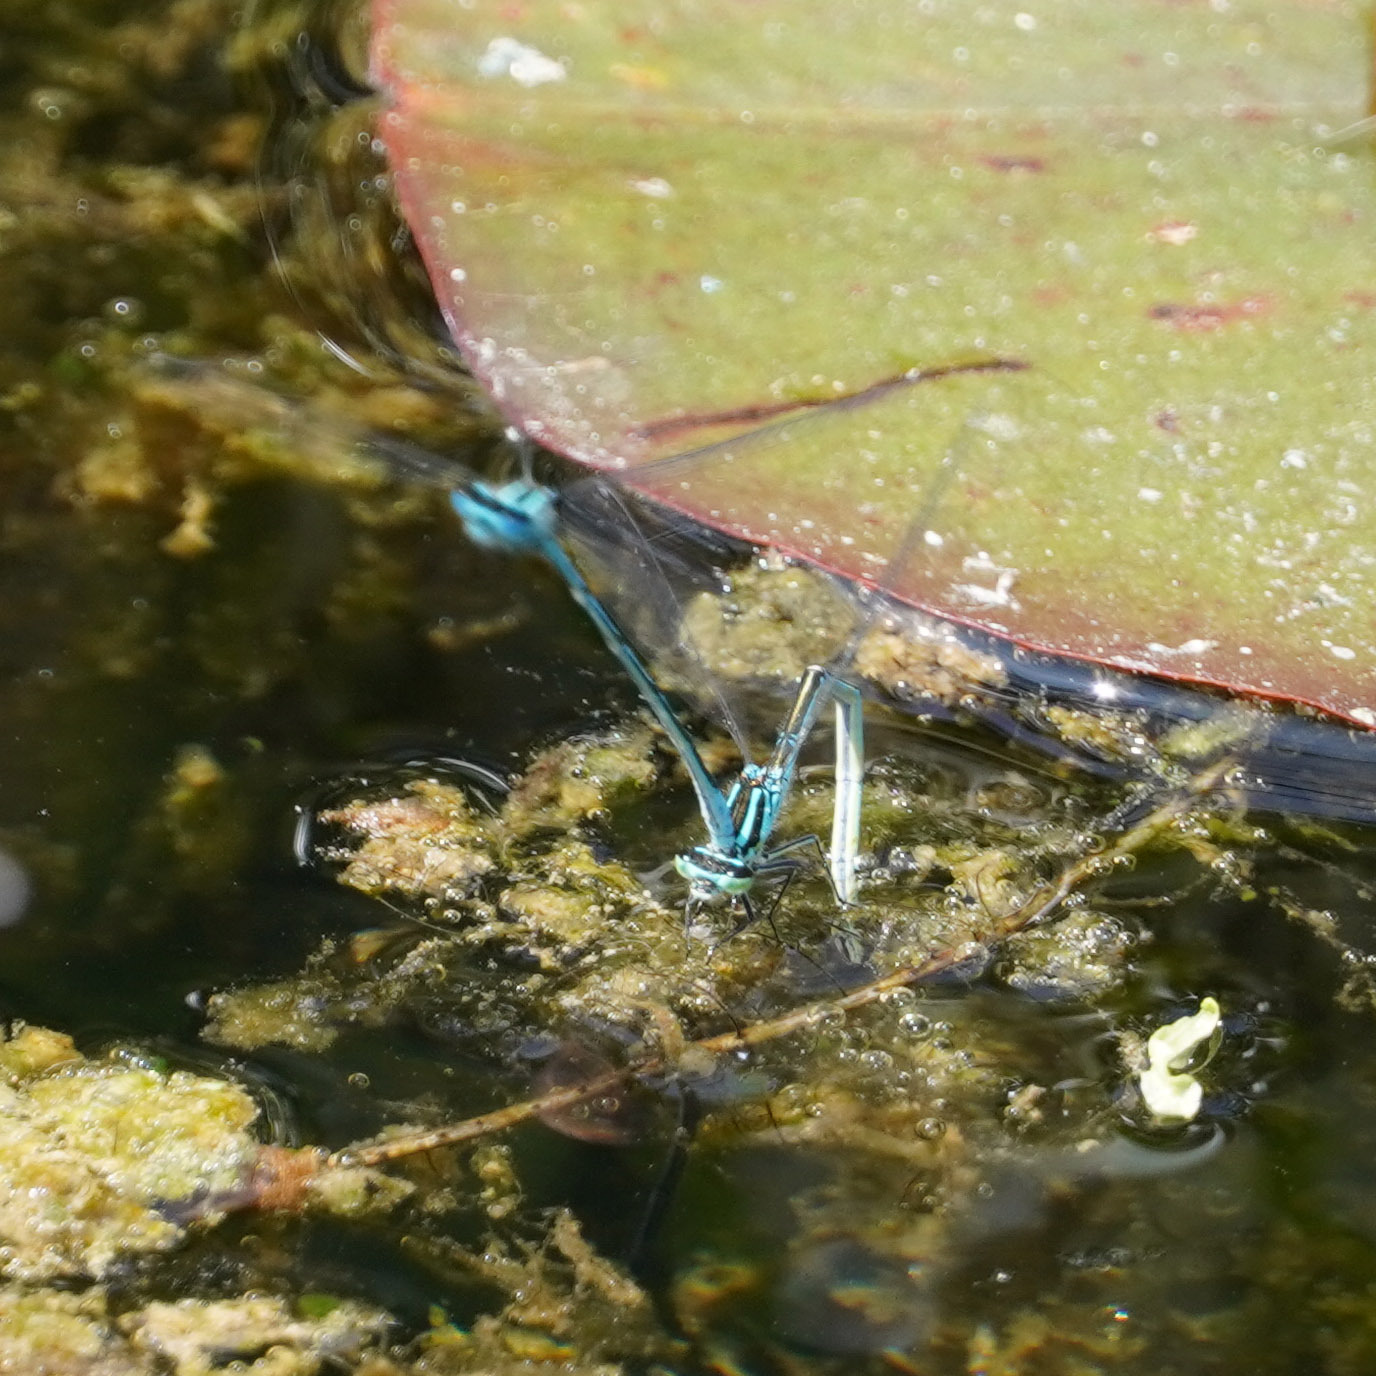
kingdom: Animalia
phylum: Arthropoda
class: Insecta
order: Odonata
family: Coenagrionidae
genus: Coenagrion
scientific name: Coenagrion puella
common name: Azure damselfly
